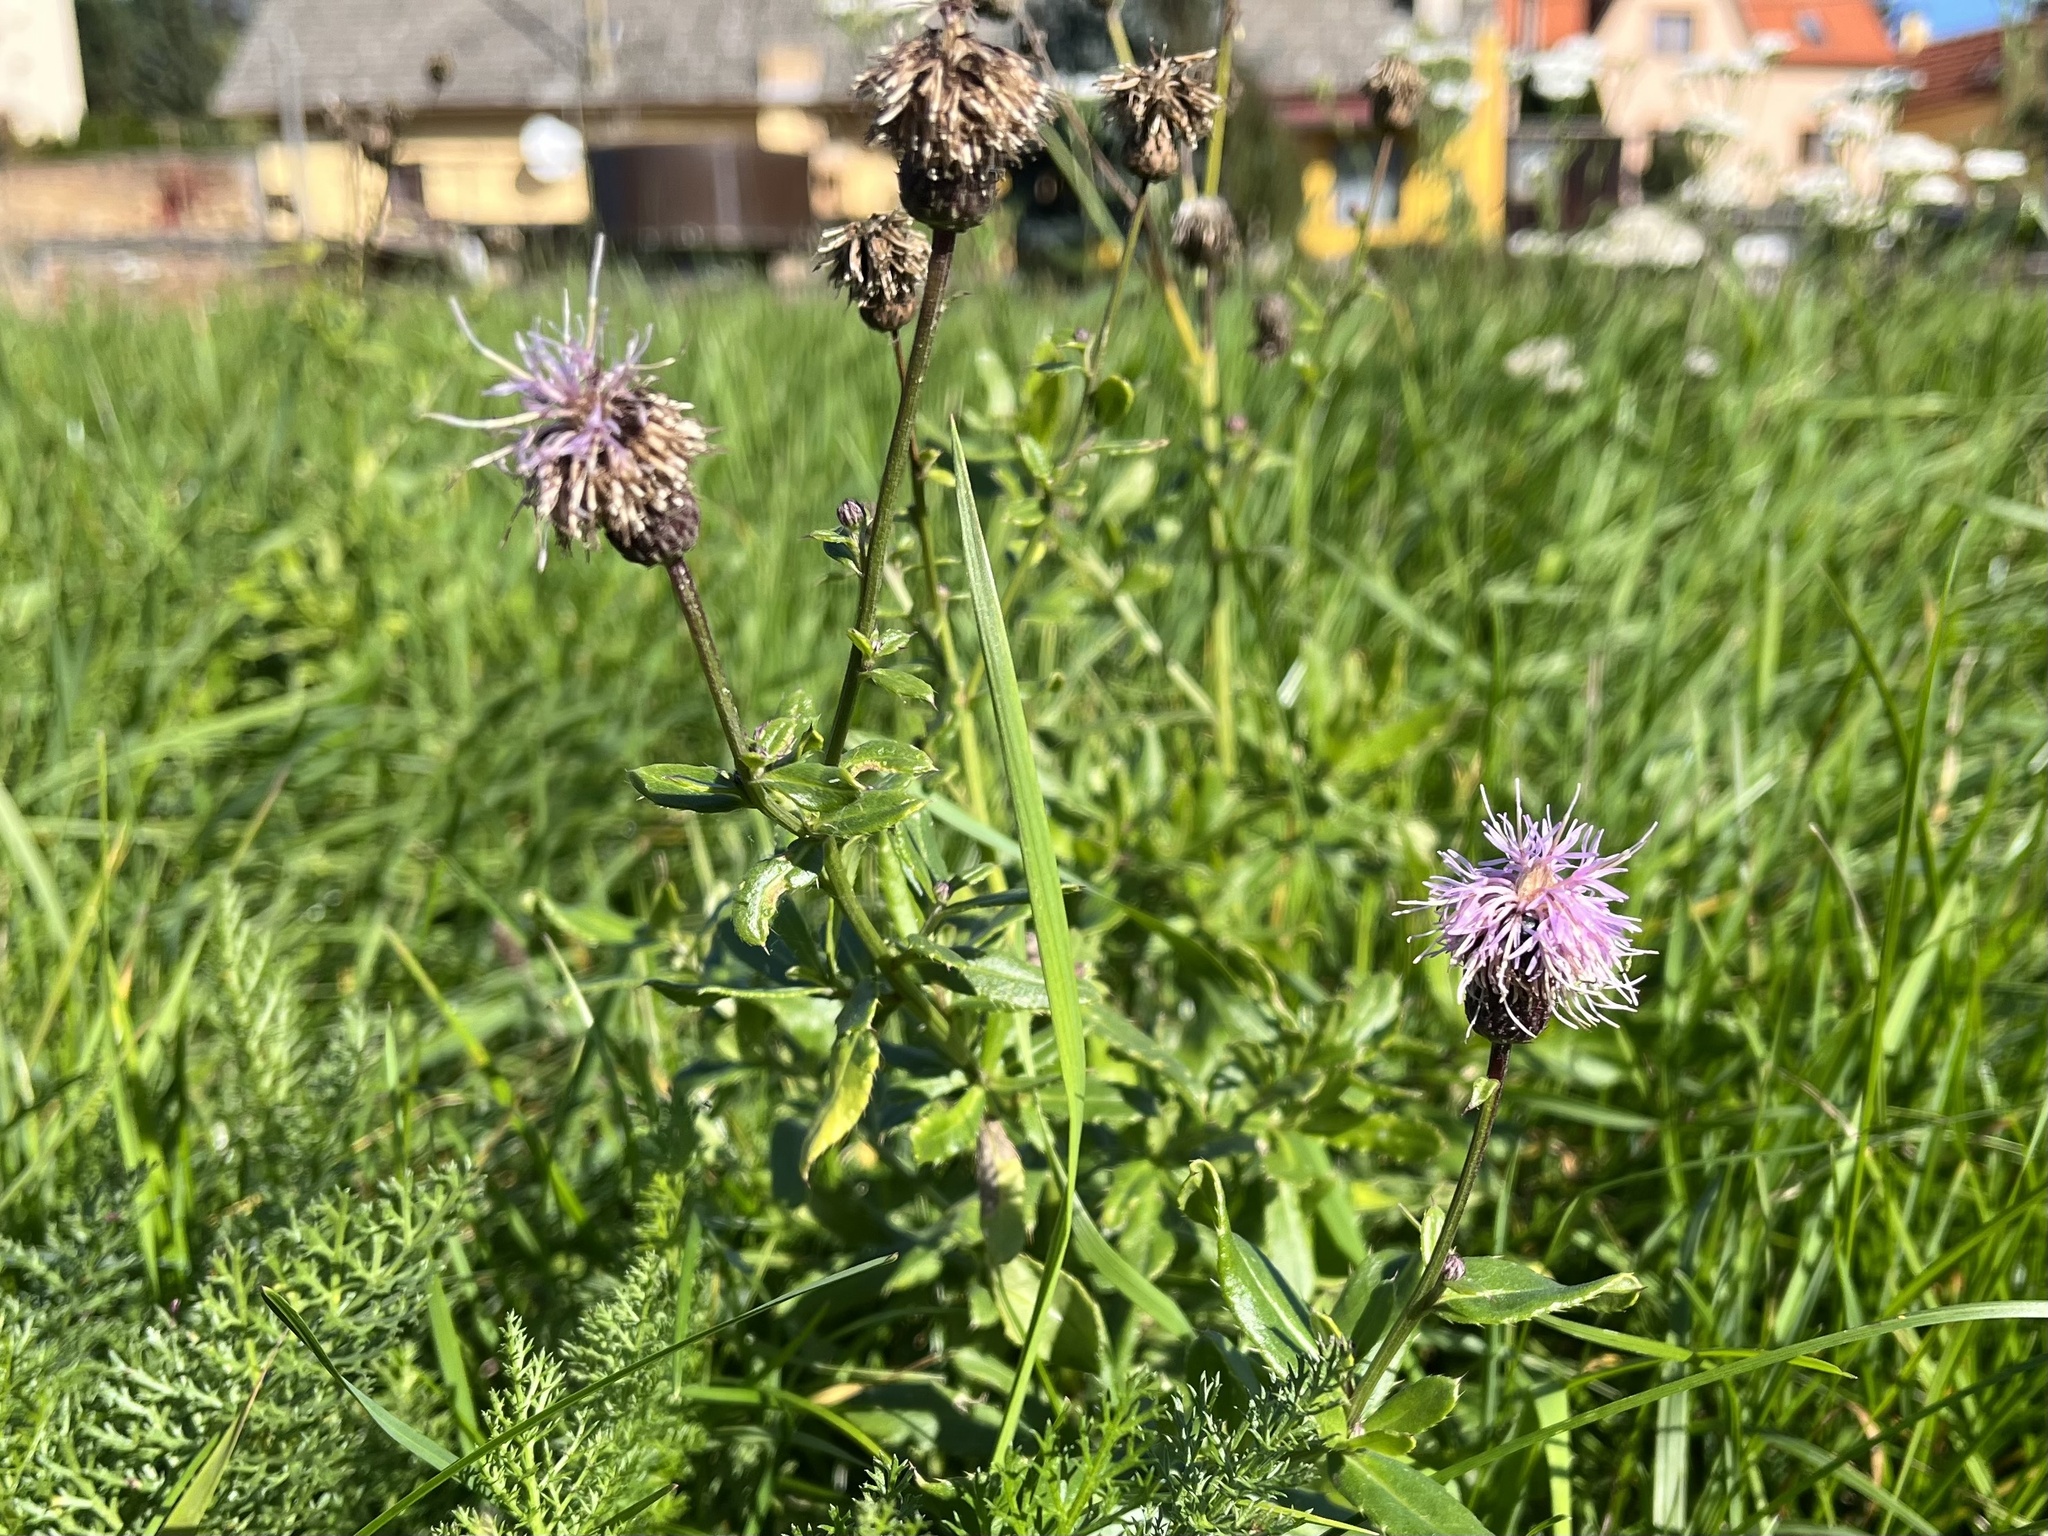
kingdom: Plantae
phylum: Tracheophyta
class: Magnoliopsida
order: Asterales
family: Asteraceae
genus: Cirsium
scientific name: Cirsium arvense
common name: Creeping thistle
